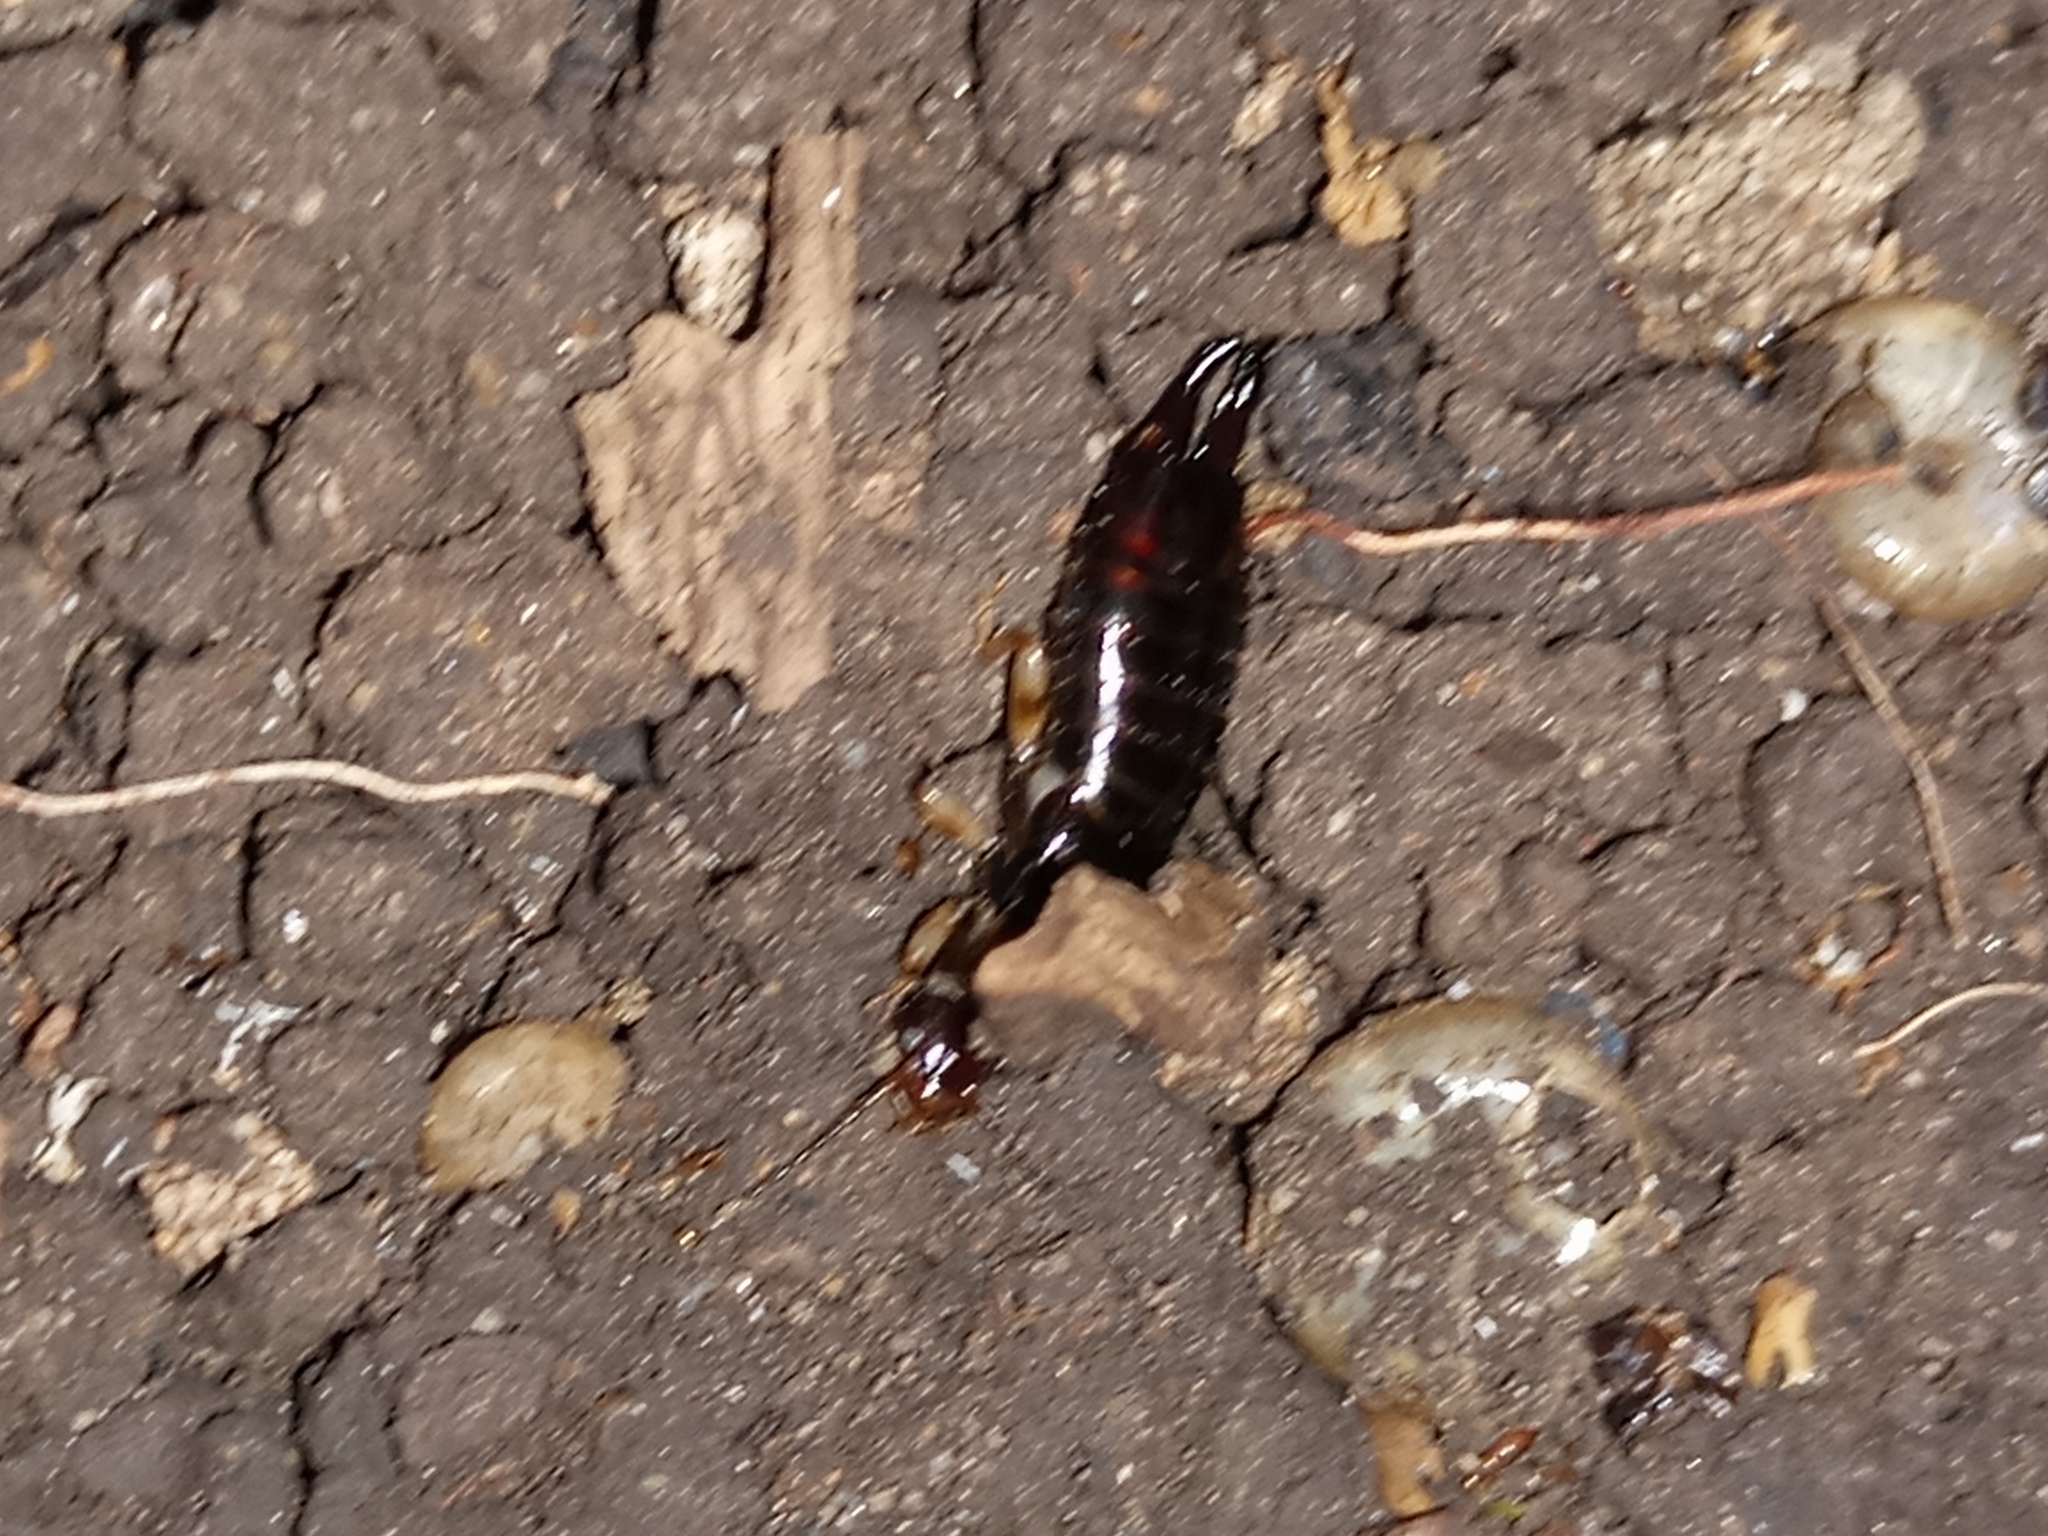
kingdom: Animalia
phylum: Arthropoda
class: Insecta
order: Dermaptera
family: Anisolabididae
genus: Euborellia
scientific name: Euborellia annulipes
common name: Ringlegged earwig
